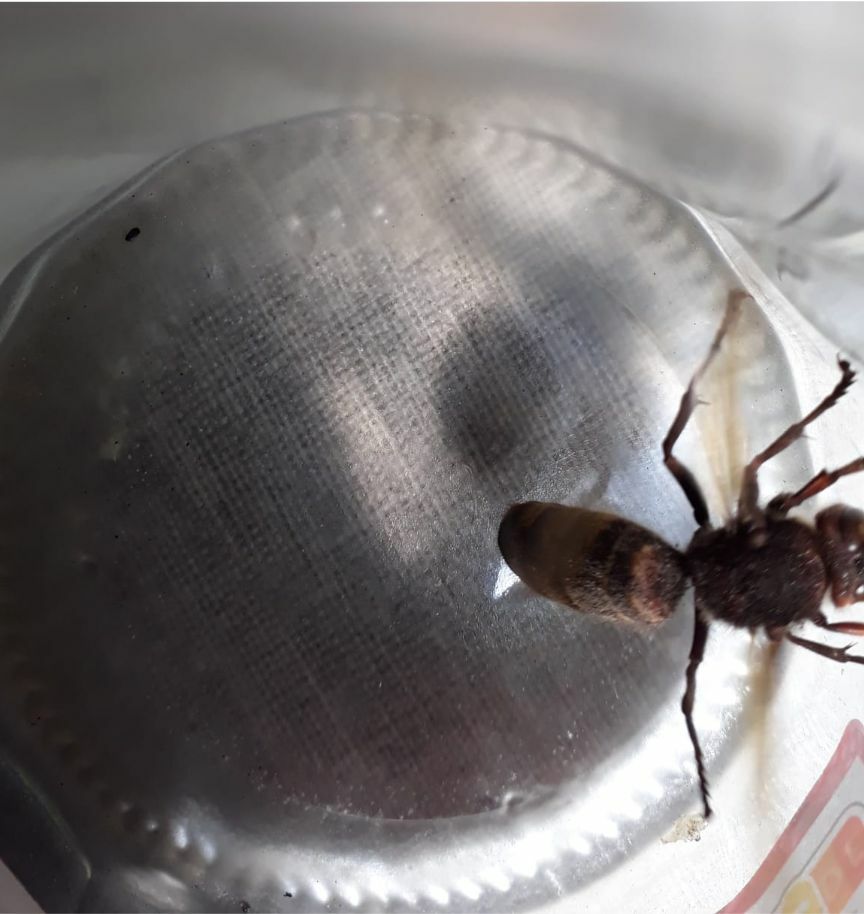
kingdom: Animalia
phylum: Arthropoda
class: Insecta
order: Hymenoptera
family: Vespidae
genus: Vespa
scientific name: Vespa crabro
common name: Hornet
